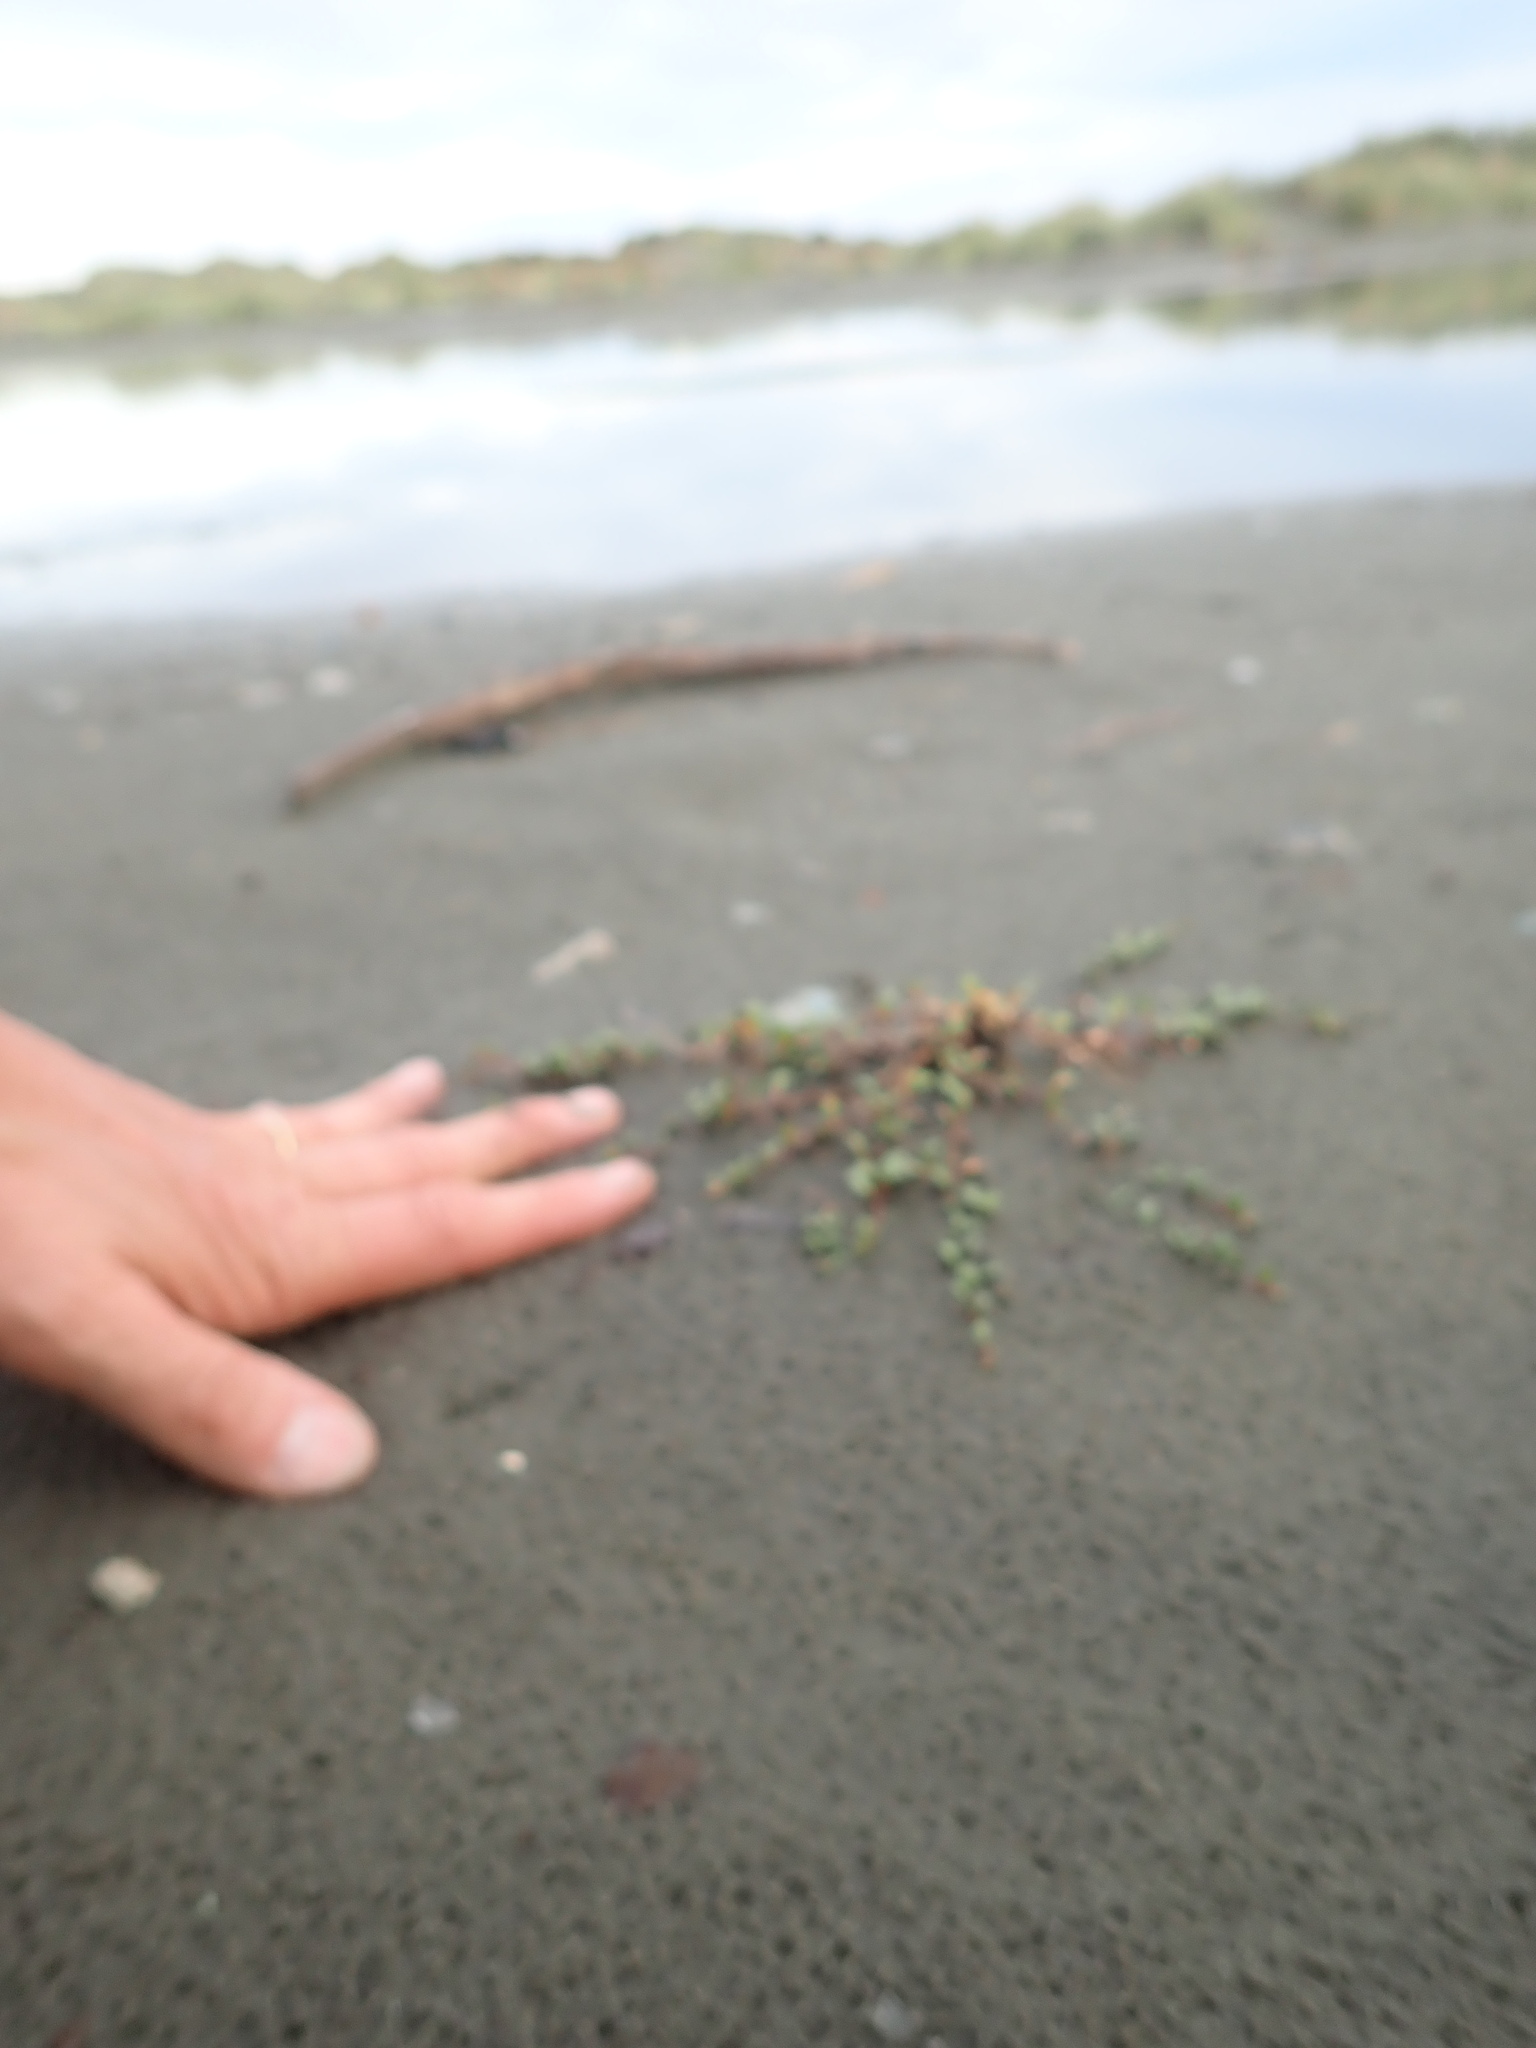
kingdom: Plantae
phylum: Tracheophyta
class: Magnoliopsida
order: Ericales
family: Primulaceae
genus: Samolus
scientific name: Samolus repens
